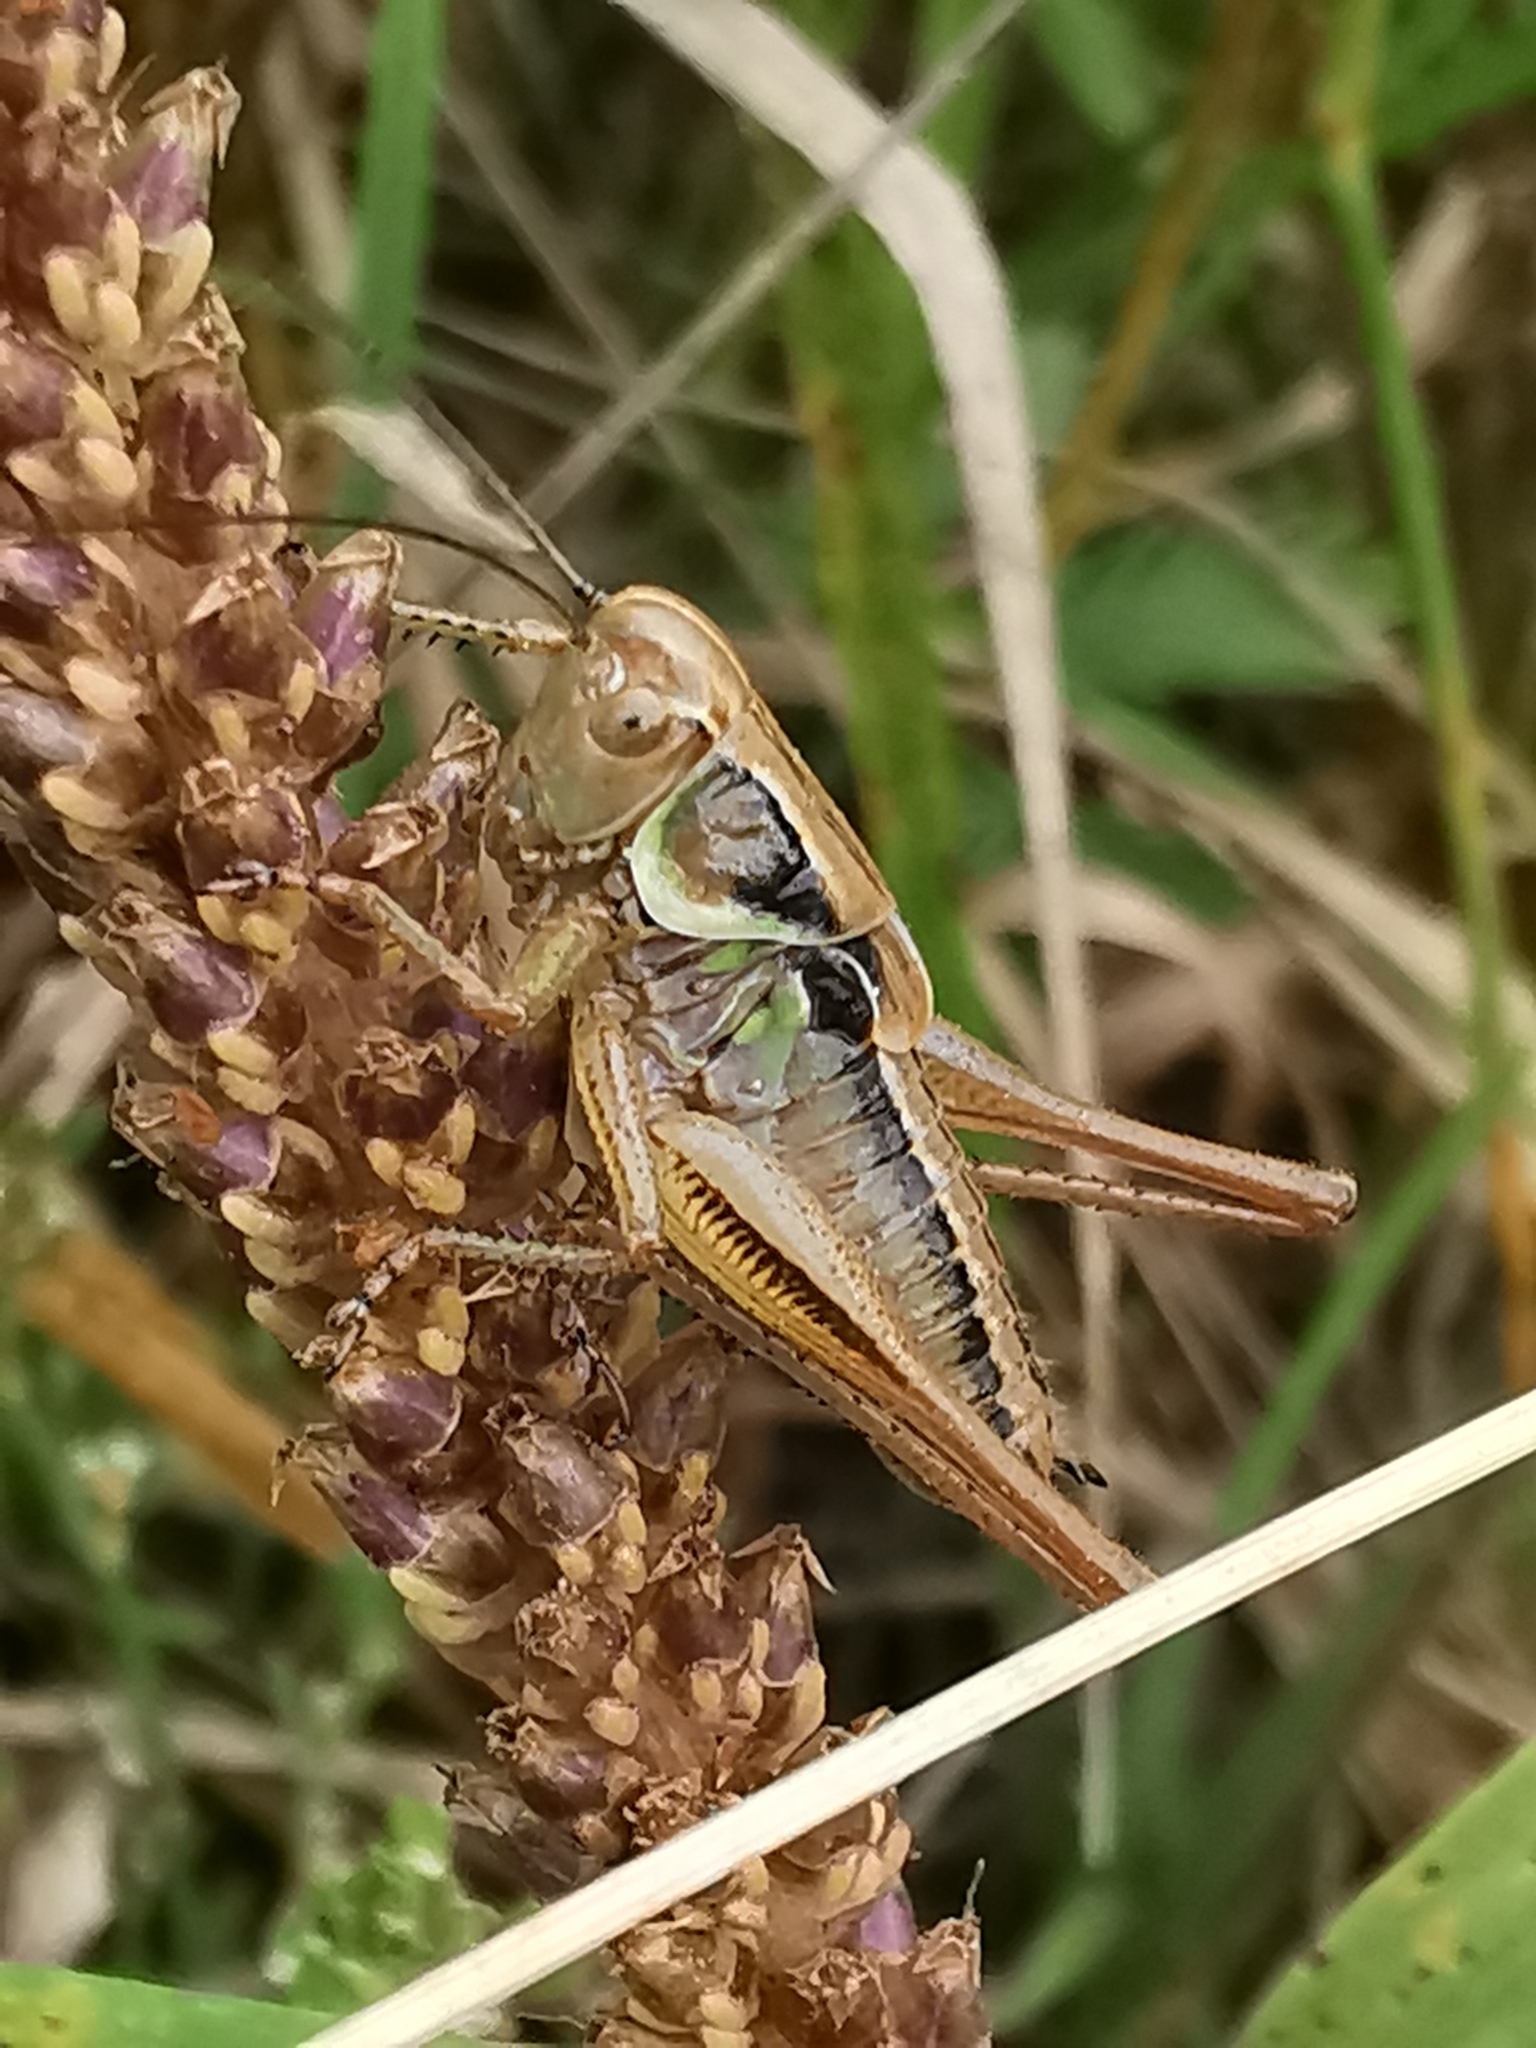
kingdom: Animalia
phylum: Arthropoda
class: Insecta
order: Orthoptera
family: Tettigoniidae
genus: Roeseliana
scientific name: Roeseliana roeselii
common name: Roesel's bush cricket
